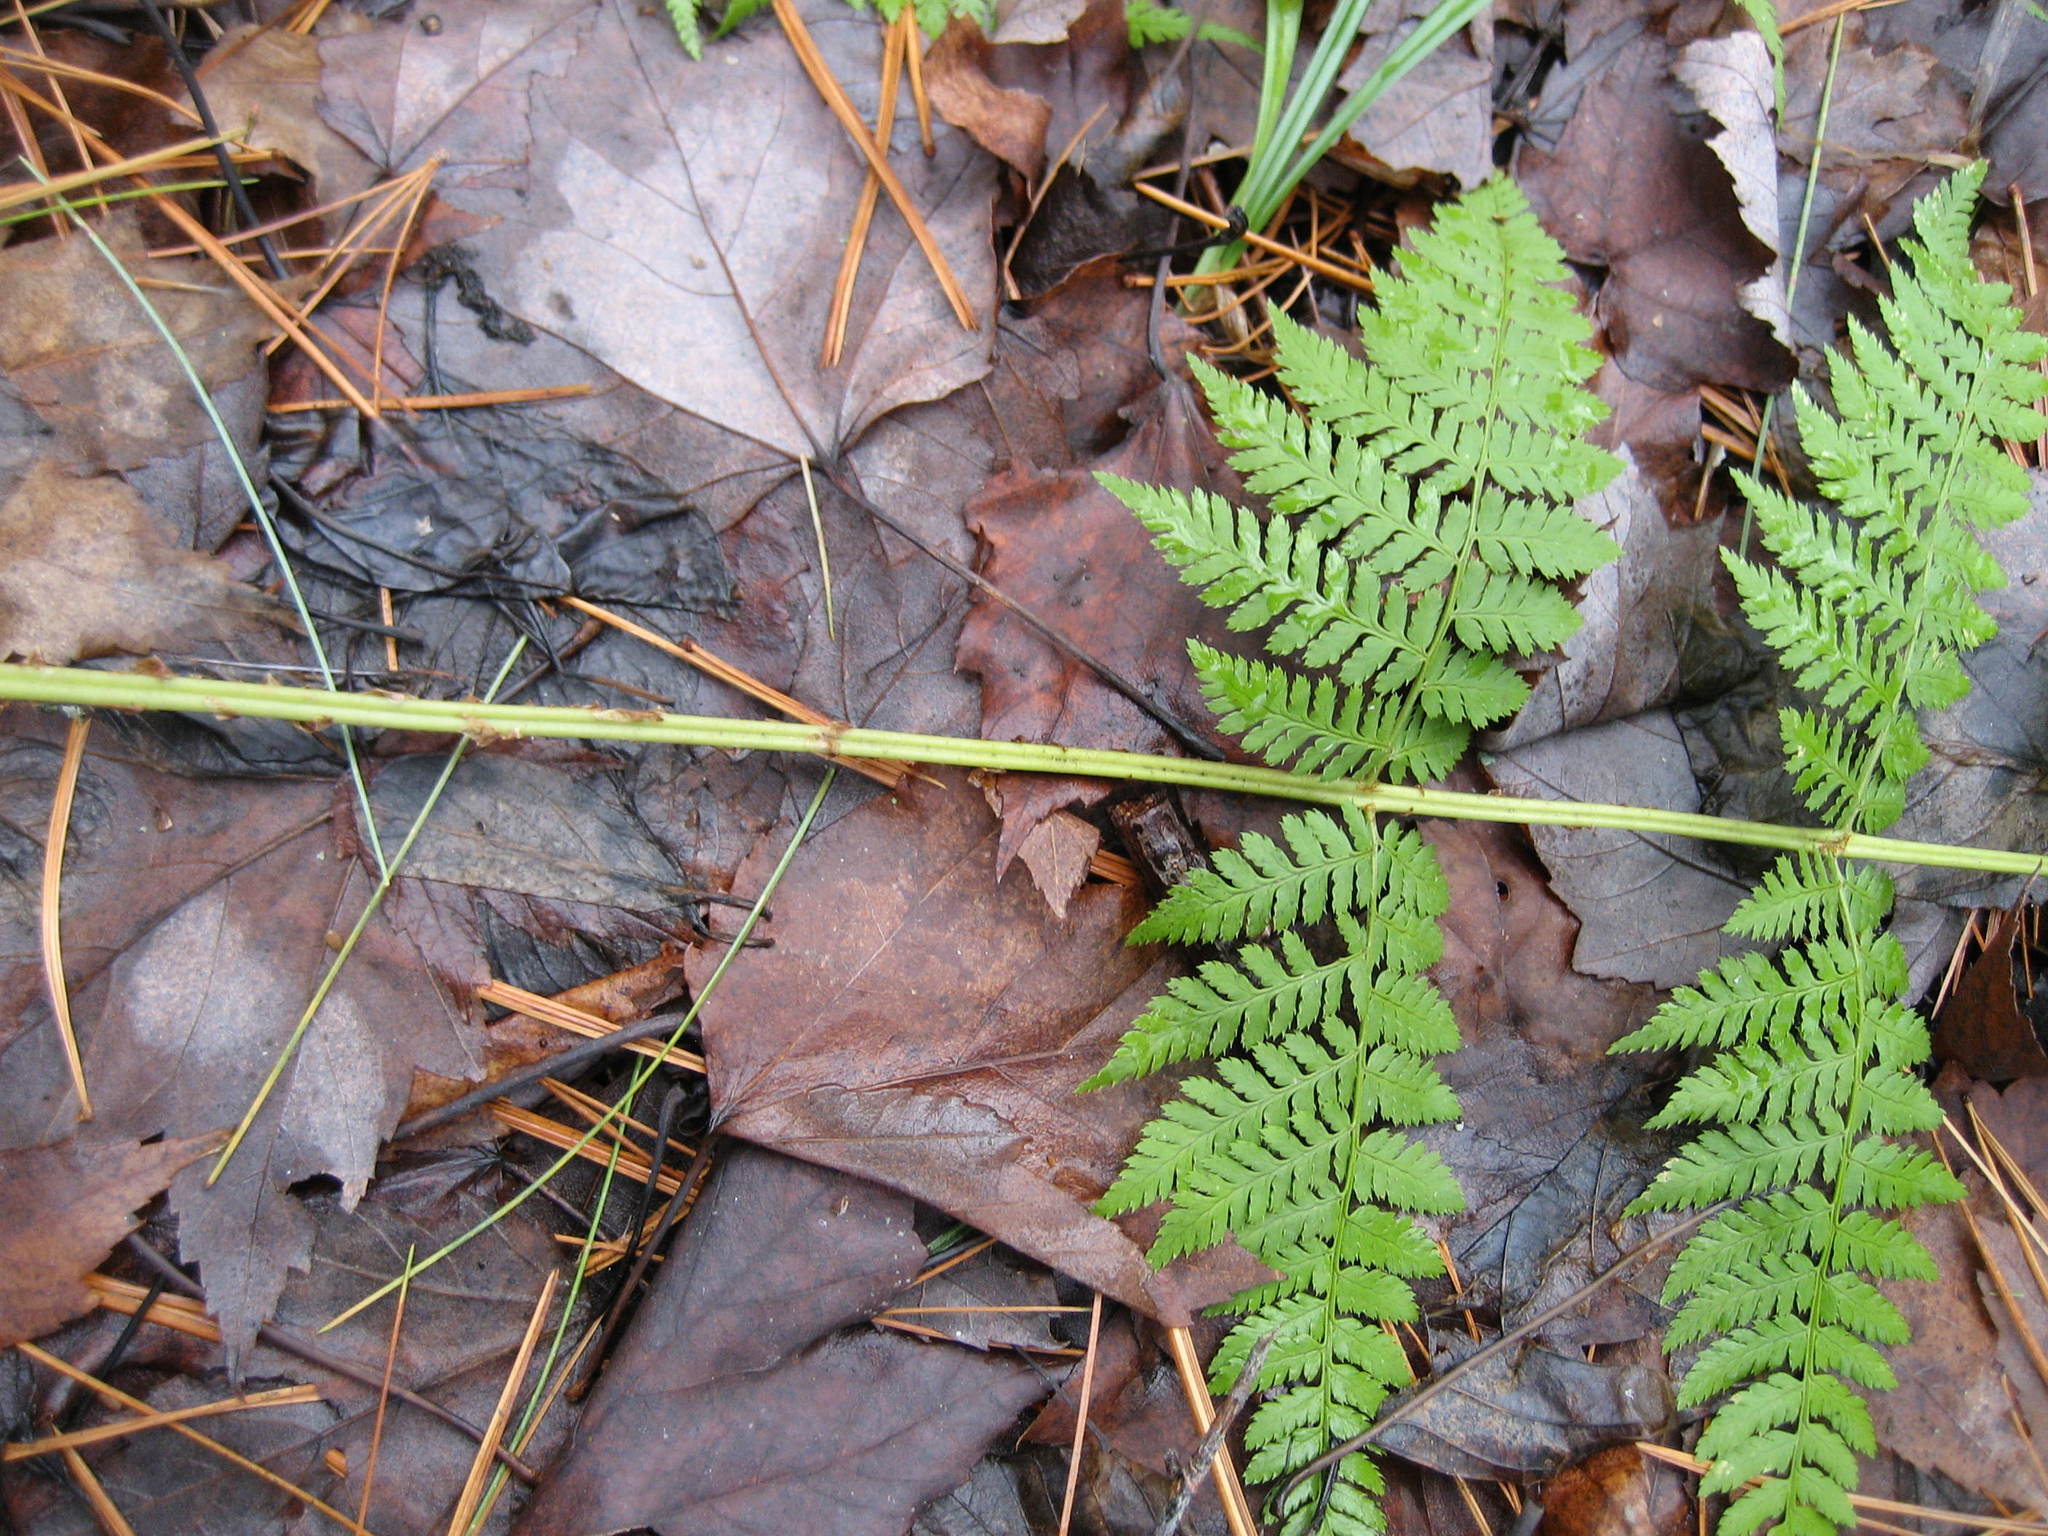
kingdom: Plantae
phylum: Tracheophyta
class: Polypodiopsida
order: Polypodiales
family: Dryopteridaceae
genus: Dryopteris
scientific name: Dryopteris intermedia
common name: Evergreen wood fern
